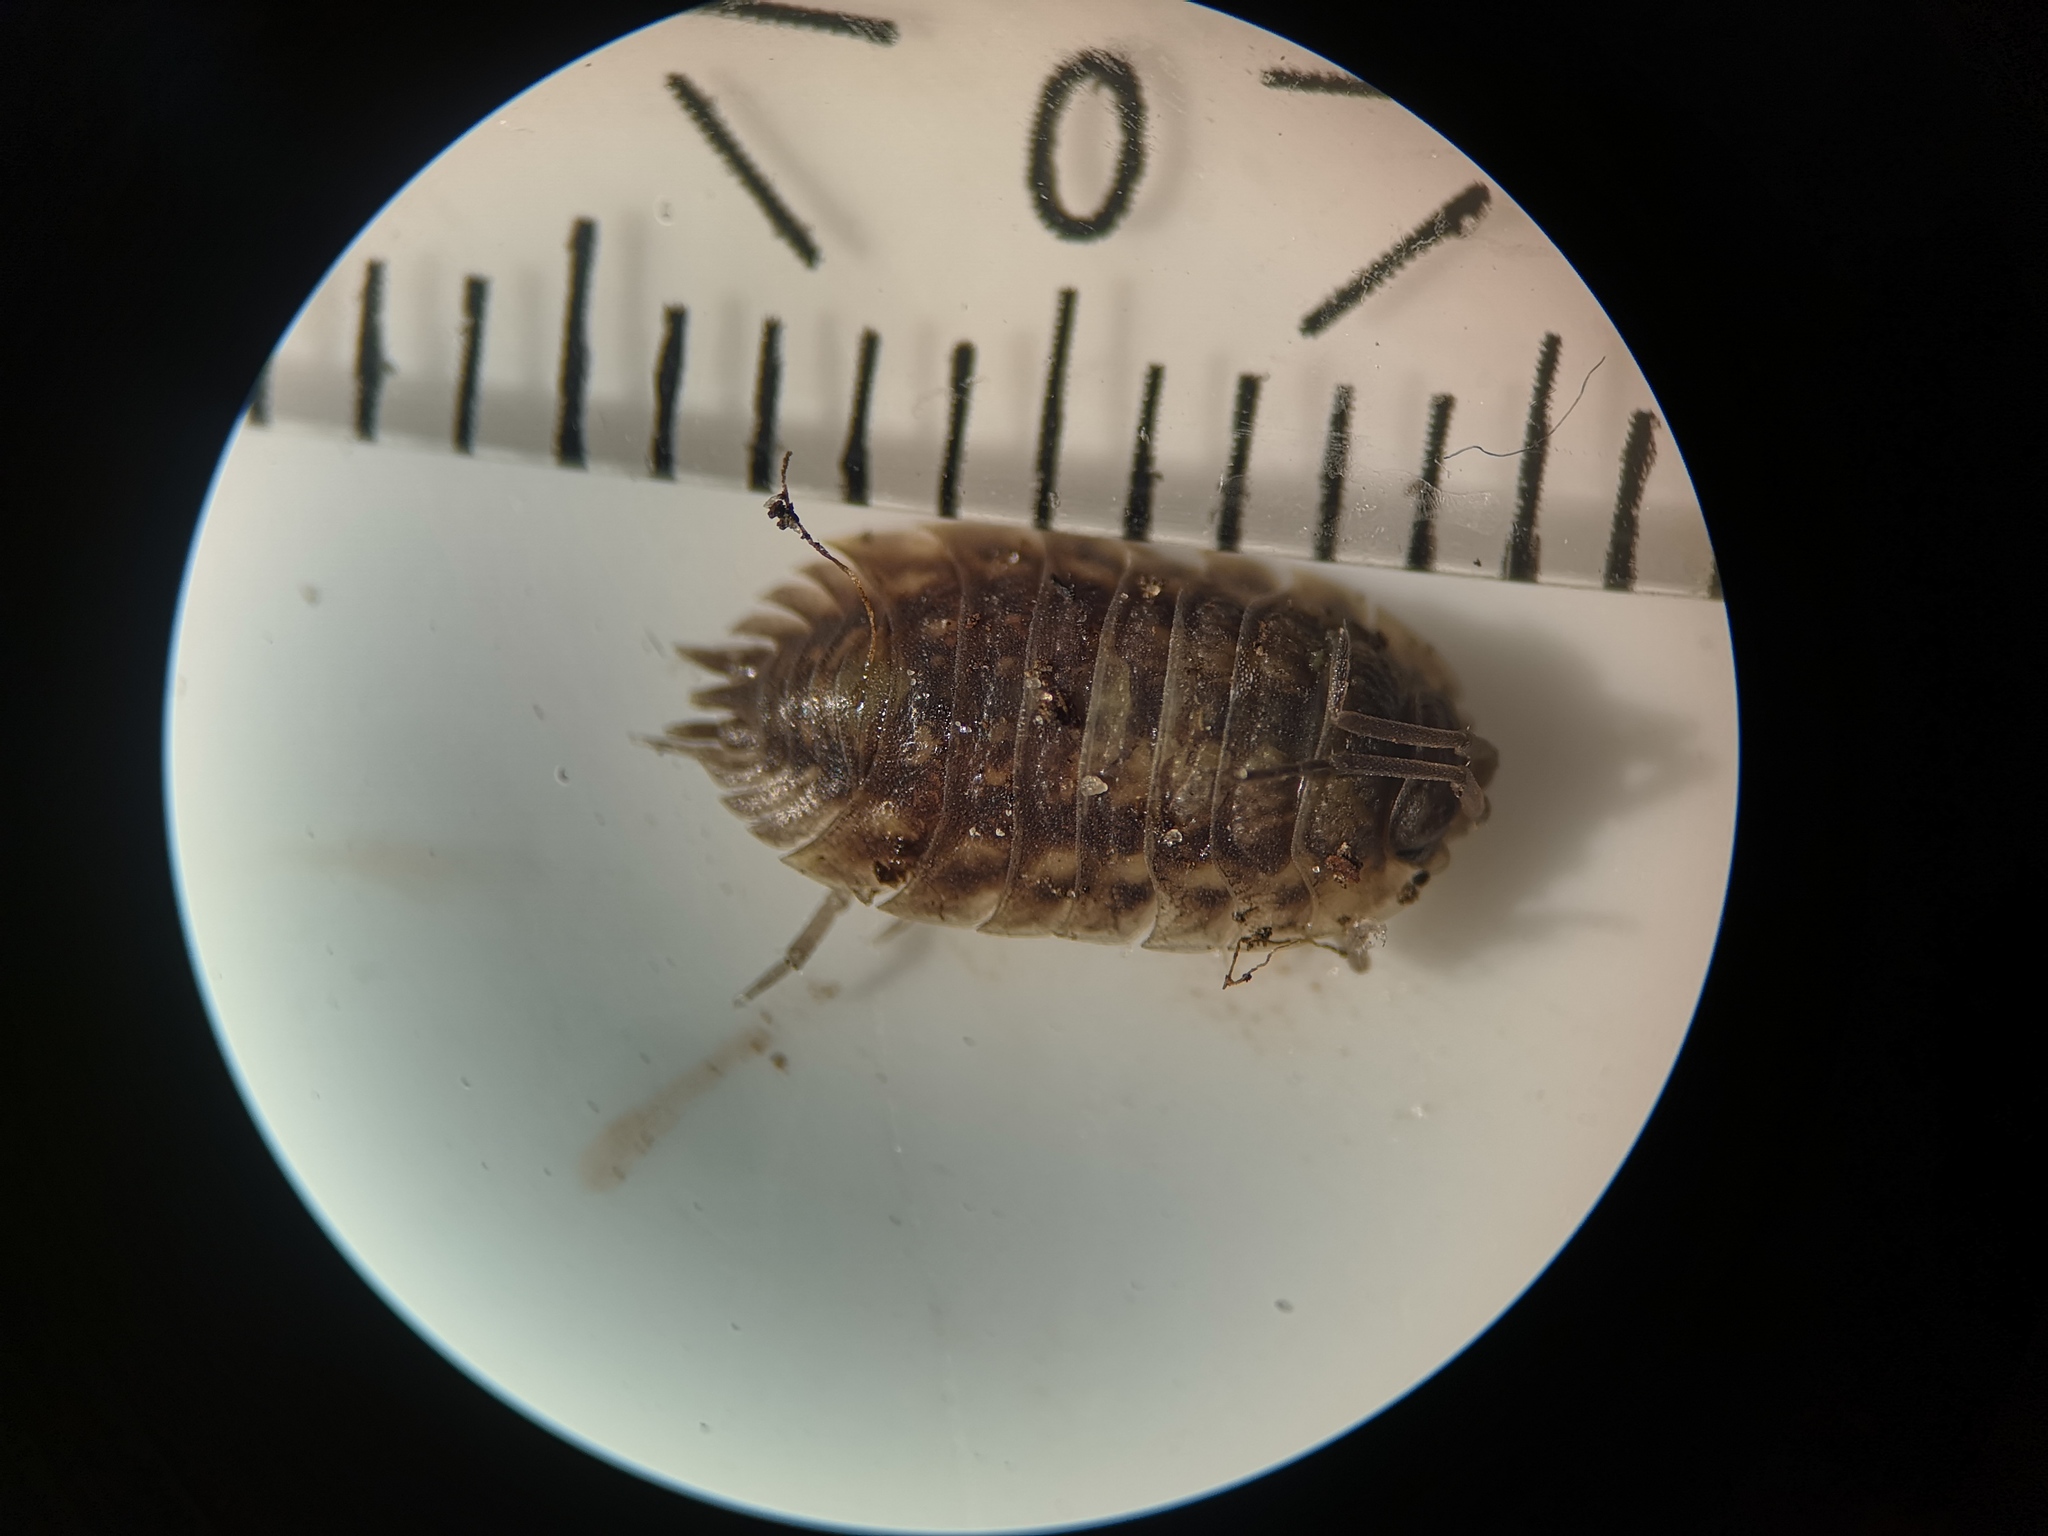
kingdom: Animalia
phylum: Arthropoda
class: Malacostraca
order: Isopoda
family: Oniscidae
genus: Oniscus
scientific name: Oniscus asellus
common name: Common shiny woodlouse
